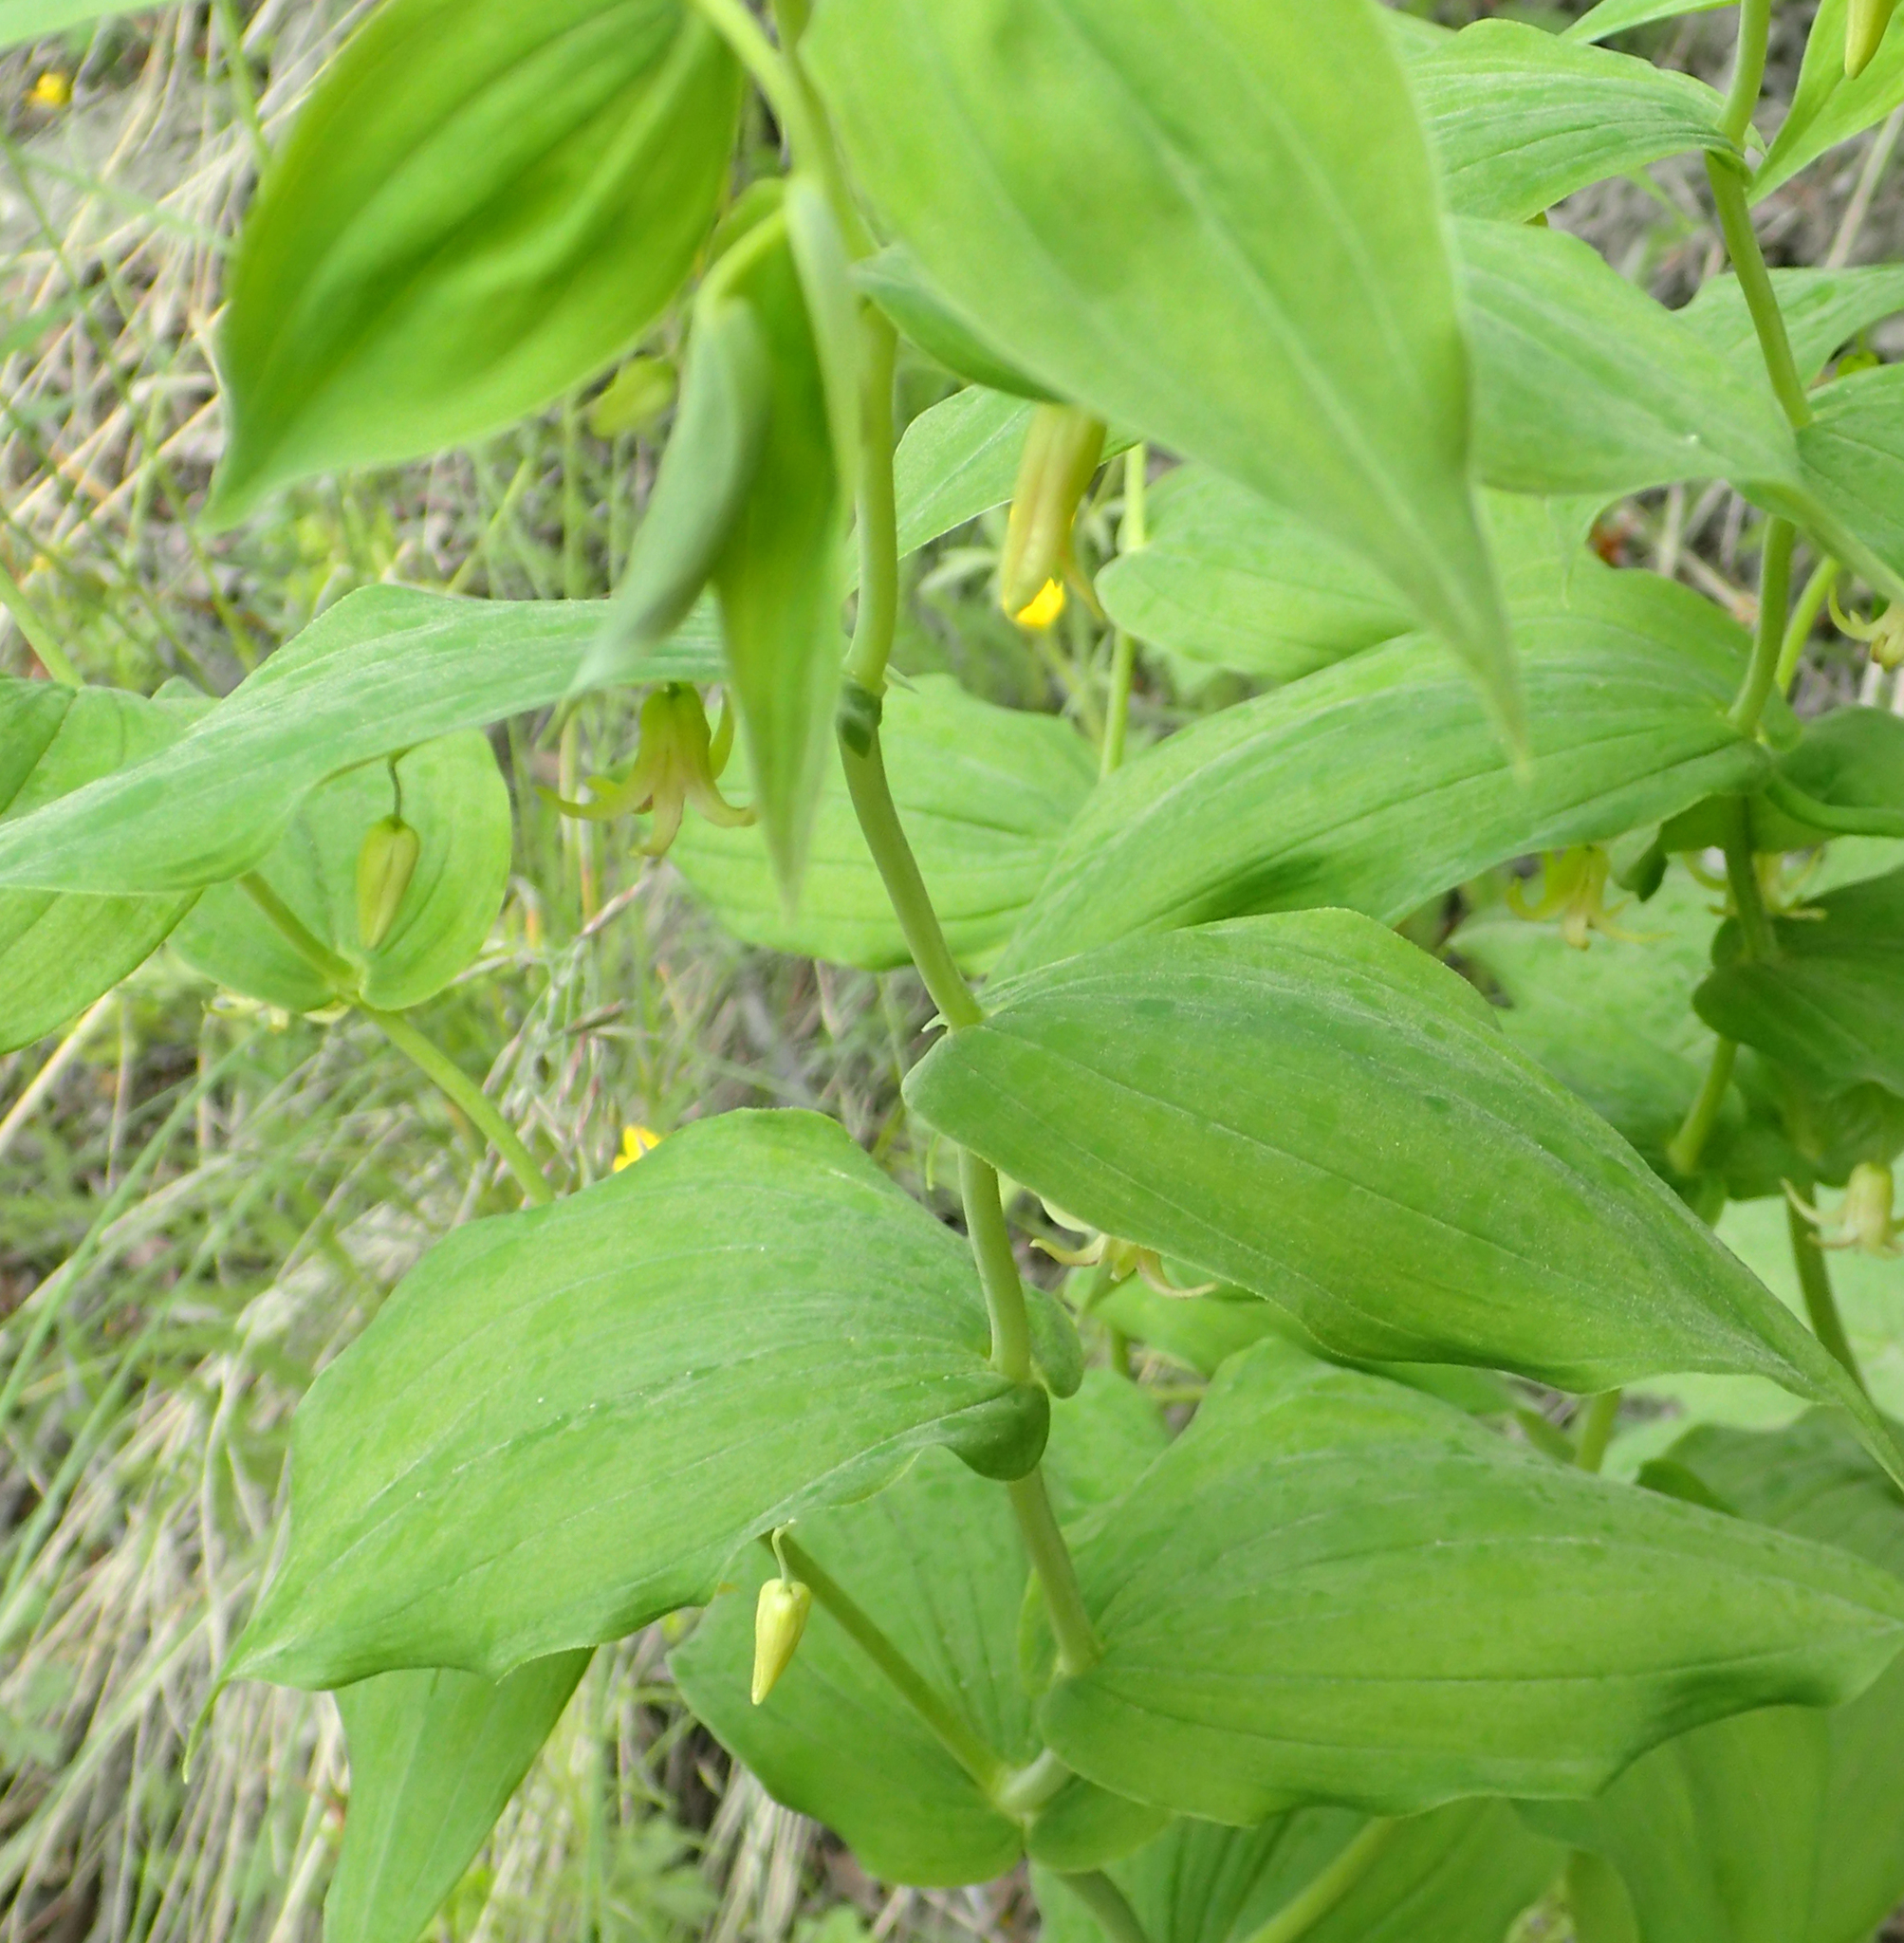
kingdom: Plantae
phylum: Tracheophyta
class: Liliopsida
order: Liliales
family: Liliaceae
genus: Streptopus
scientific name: Streptopus amplexifolius
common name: Clasp twisted stalk
